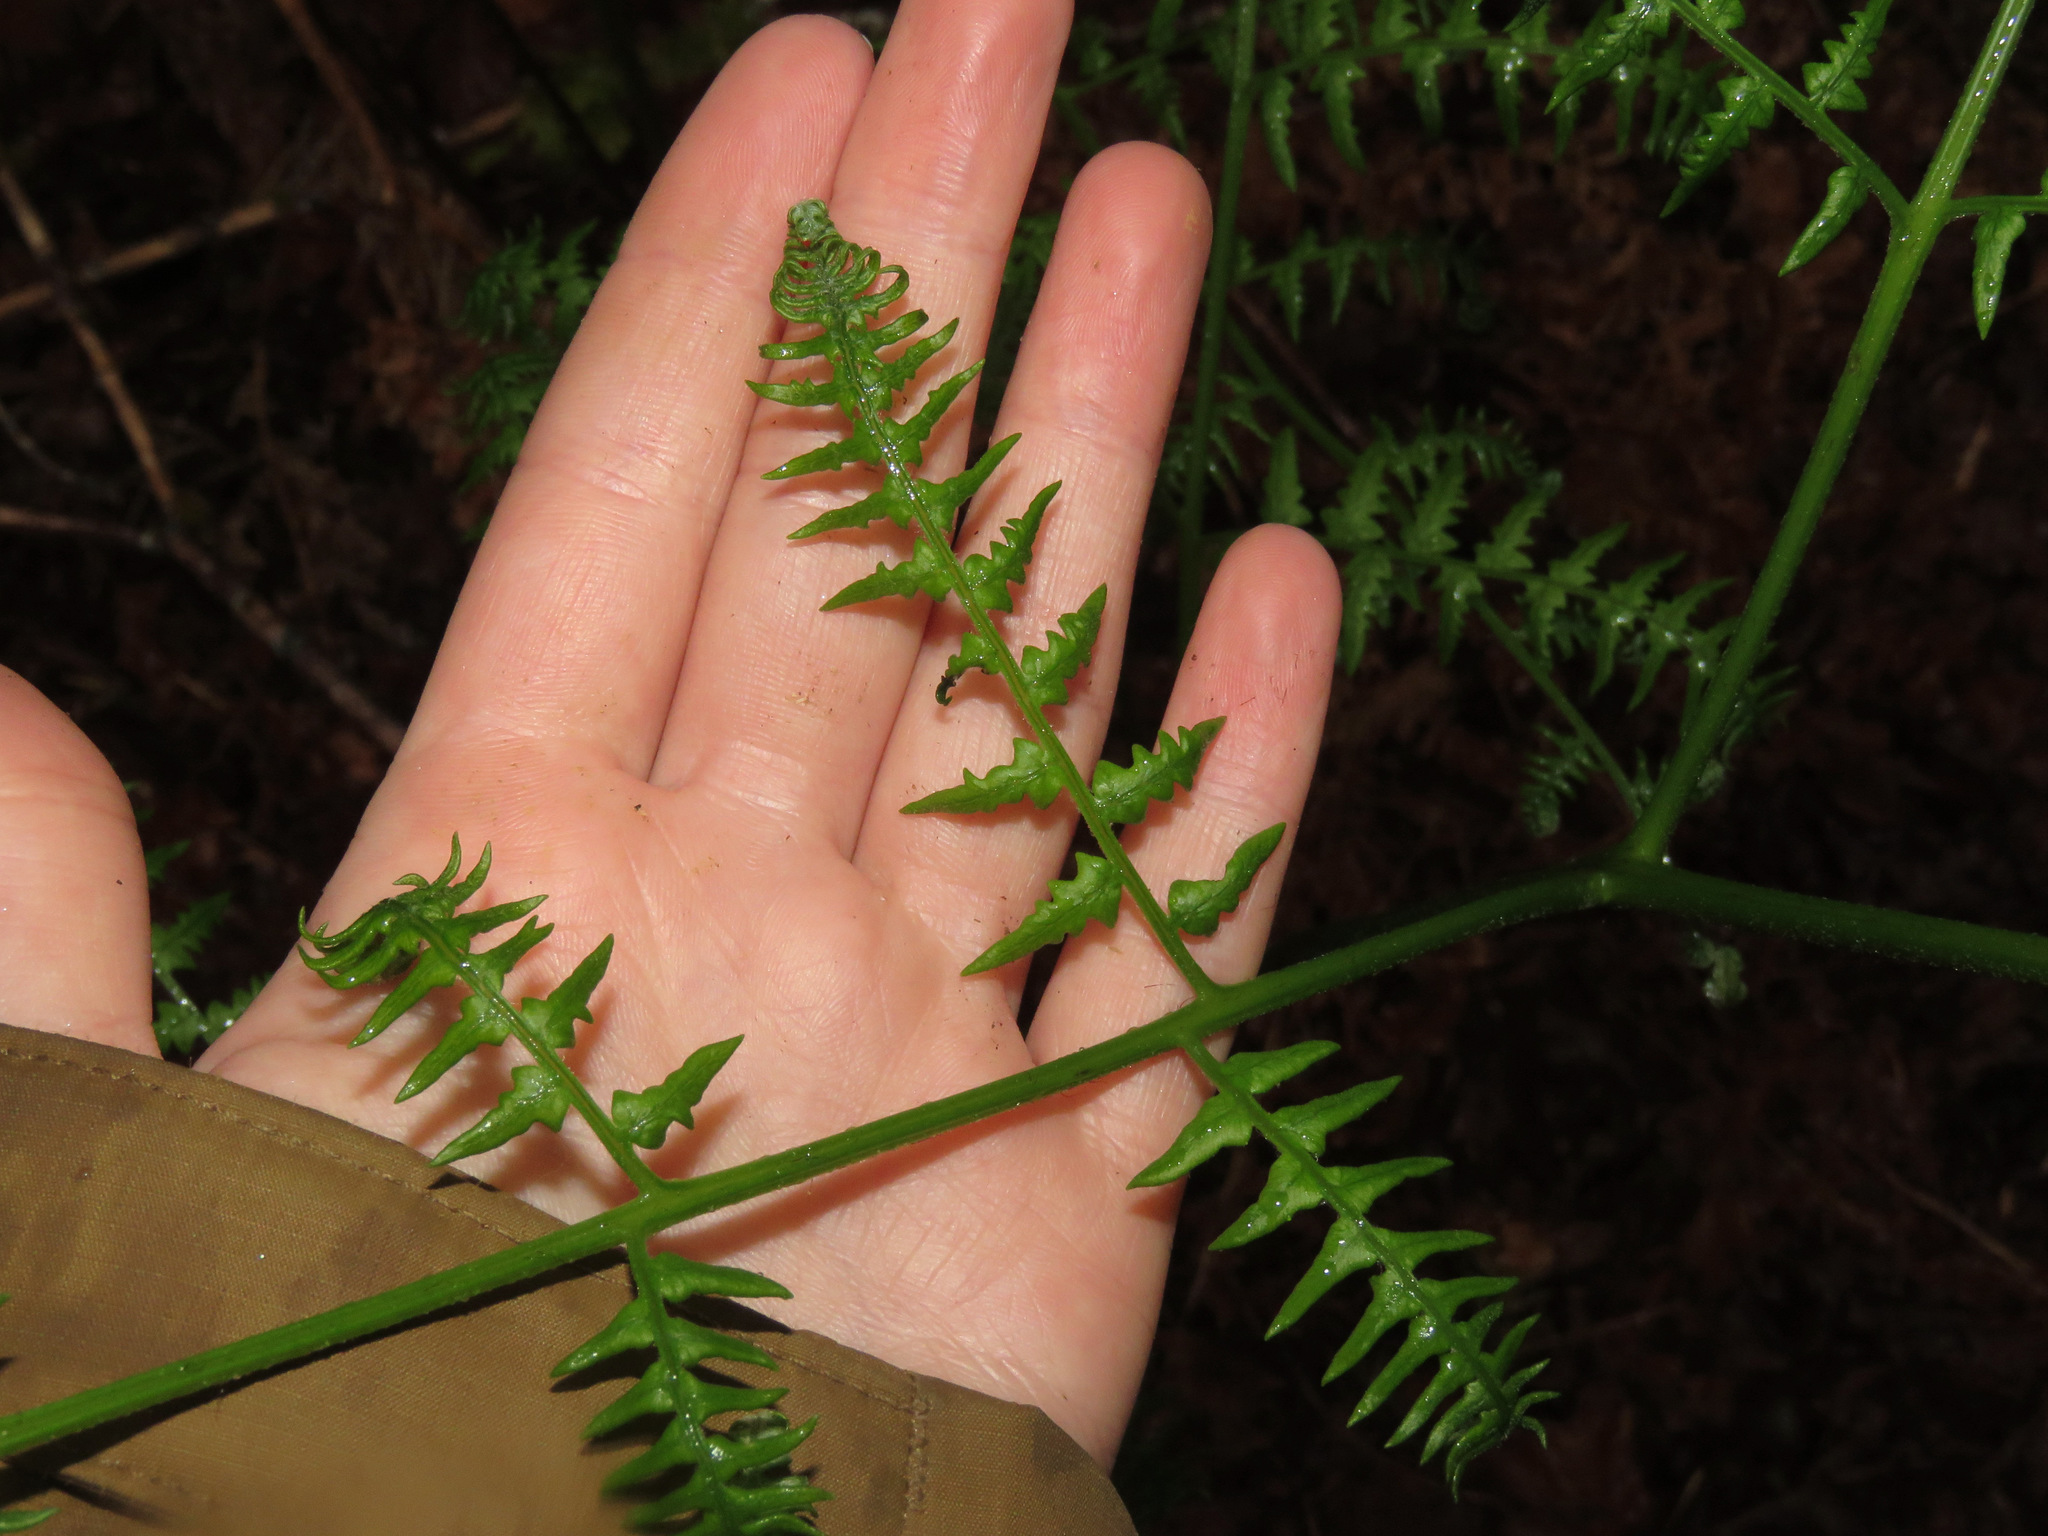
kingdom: Plantae
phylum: Tracheophyta
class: Polypodiopsida
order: Polypodiales
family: Dennstaedtiaceae
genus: Pteridium
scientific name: Pteridium aquilinum
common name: Bracken
